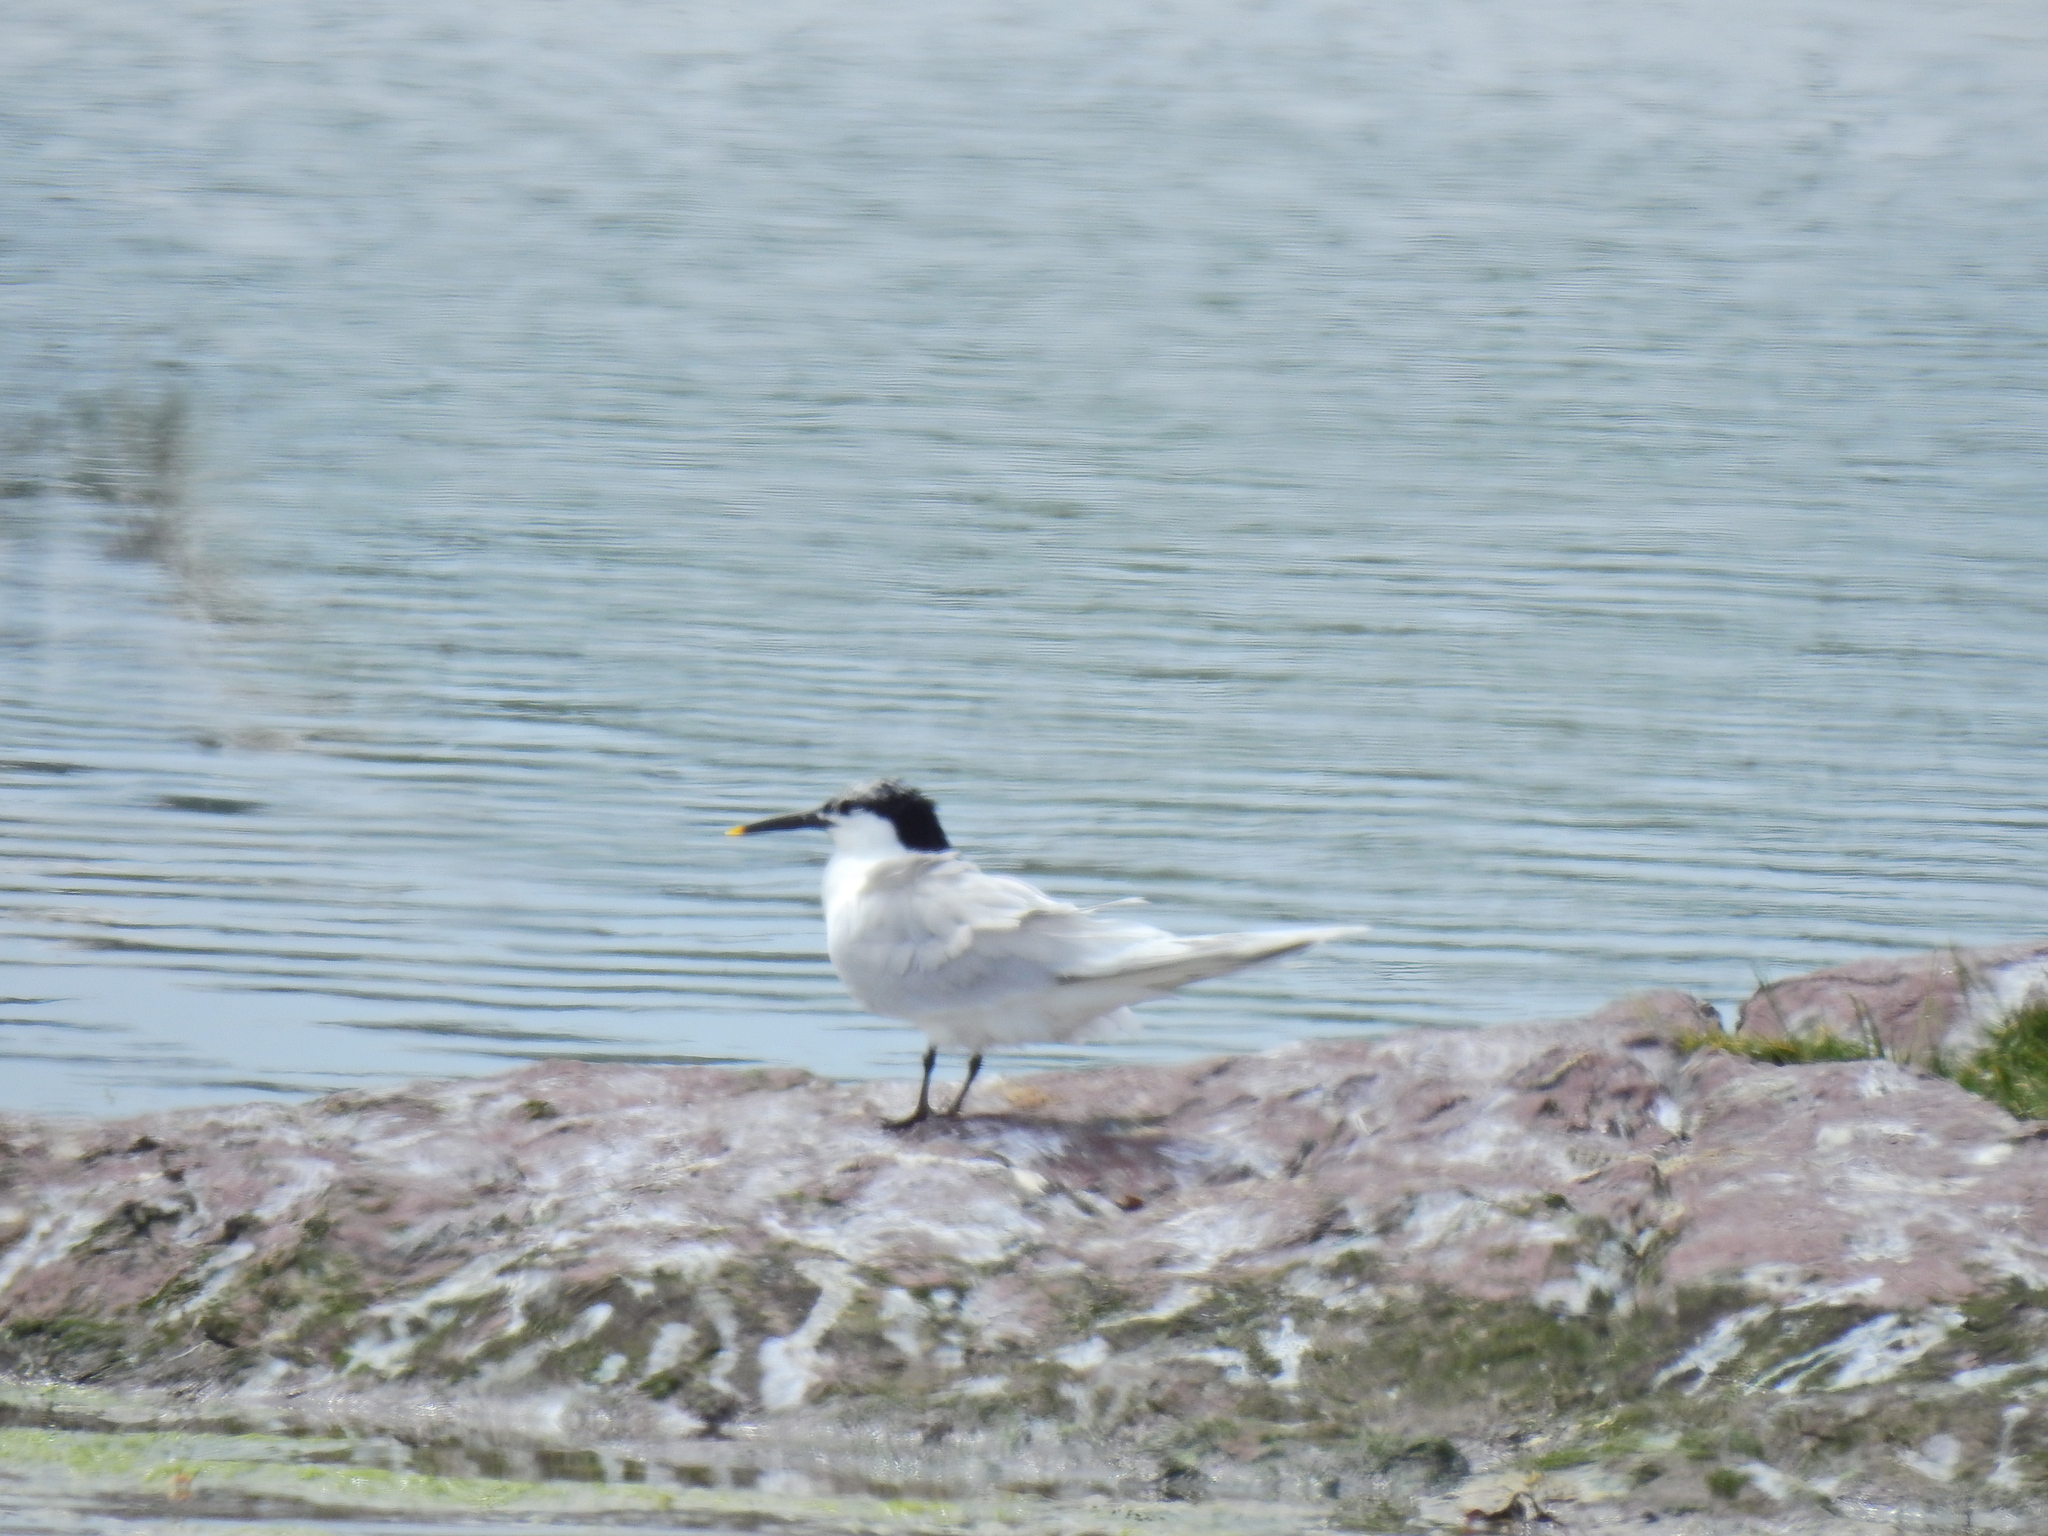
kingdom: Animalia
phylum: Chordata
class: Aves
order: Charadriiformes
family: Laridae
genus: Thalasseus
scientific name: Thalasseus sandvicensis
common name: Sandwich tern
